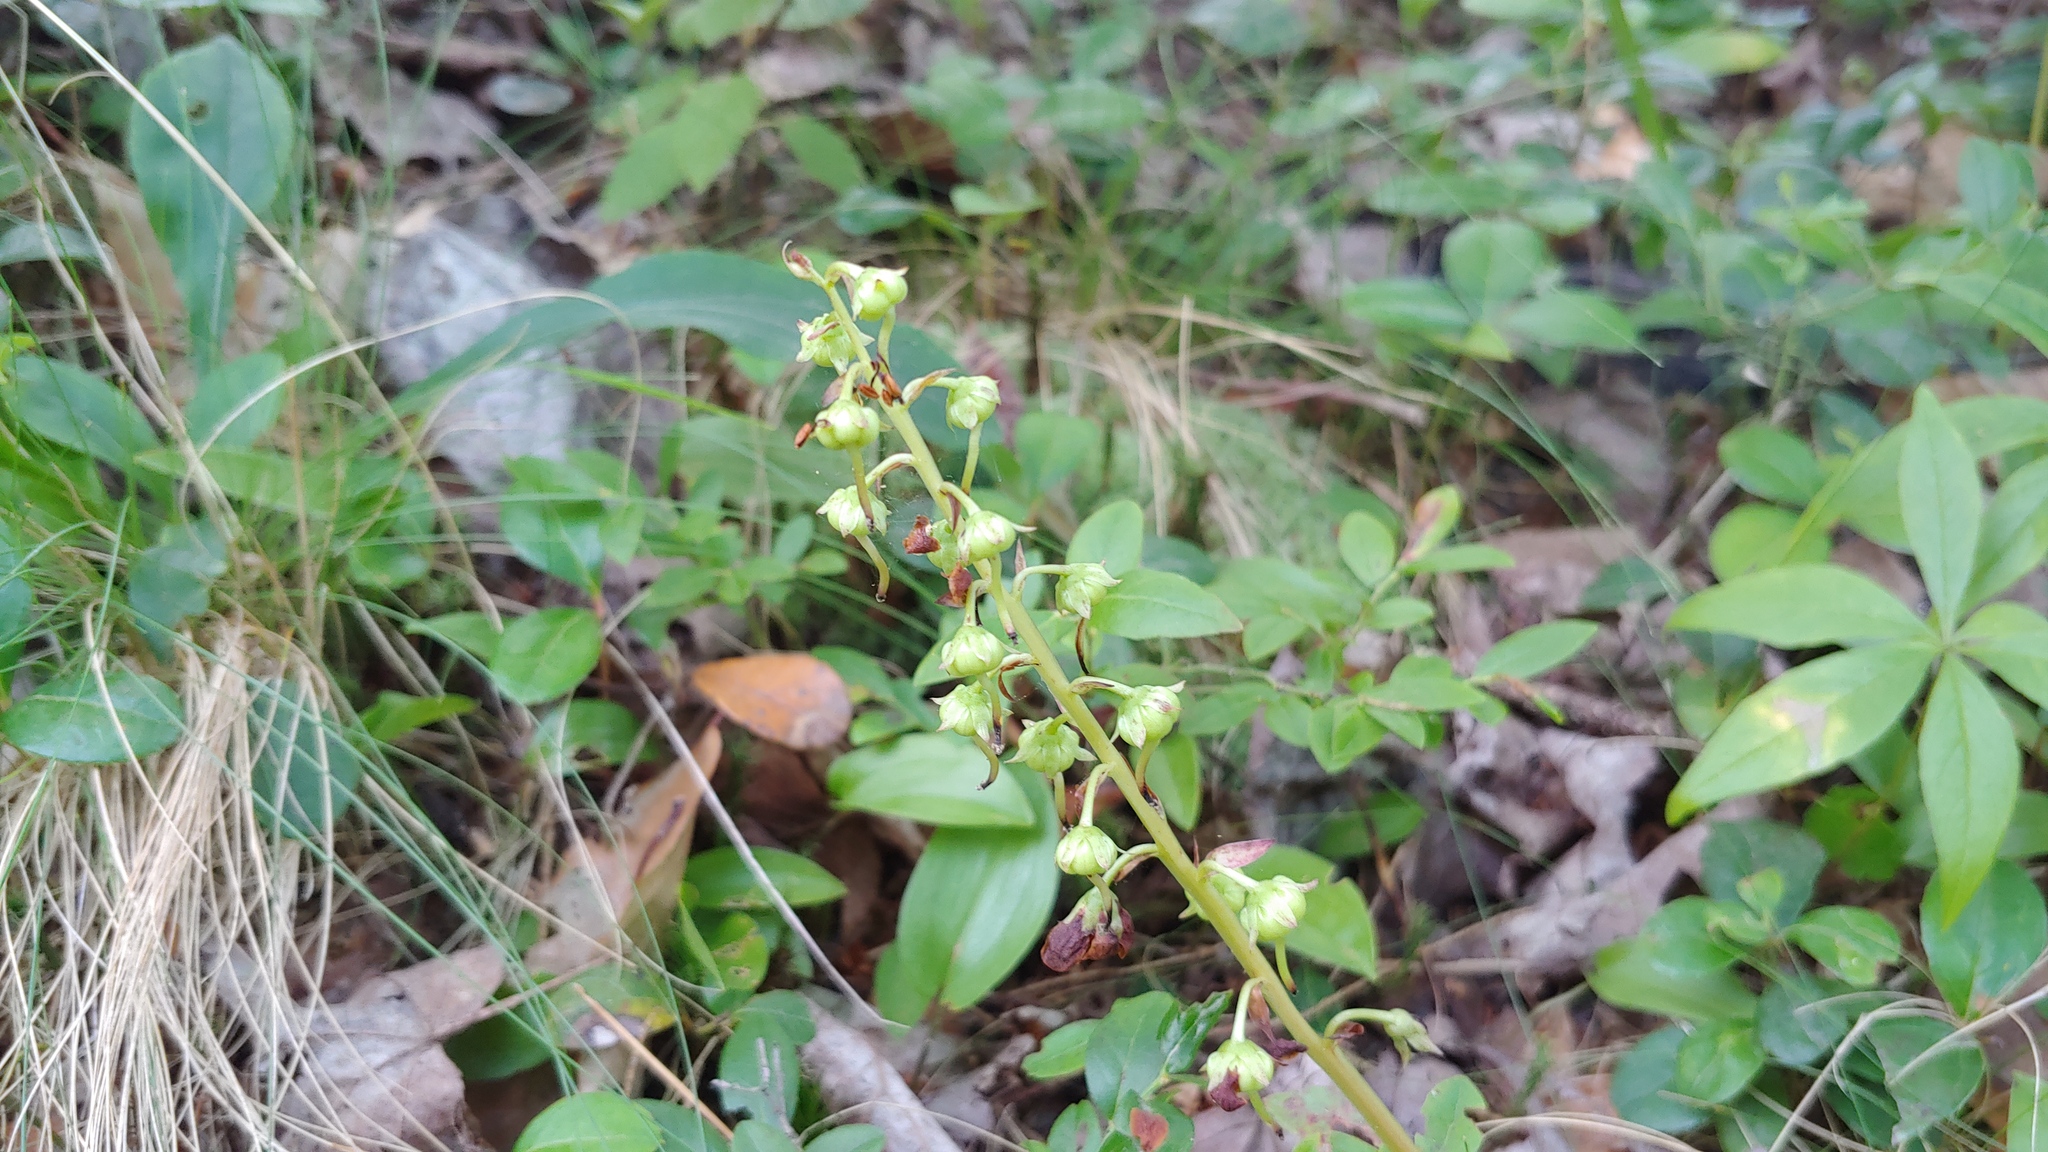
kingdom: Plantae
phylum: Tracheophyta
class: Magnoliopsida
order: Ericales
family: Ericaceae
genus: Pyrola
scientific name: Pyrola americana
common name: American wintergreen
